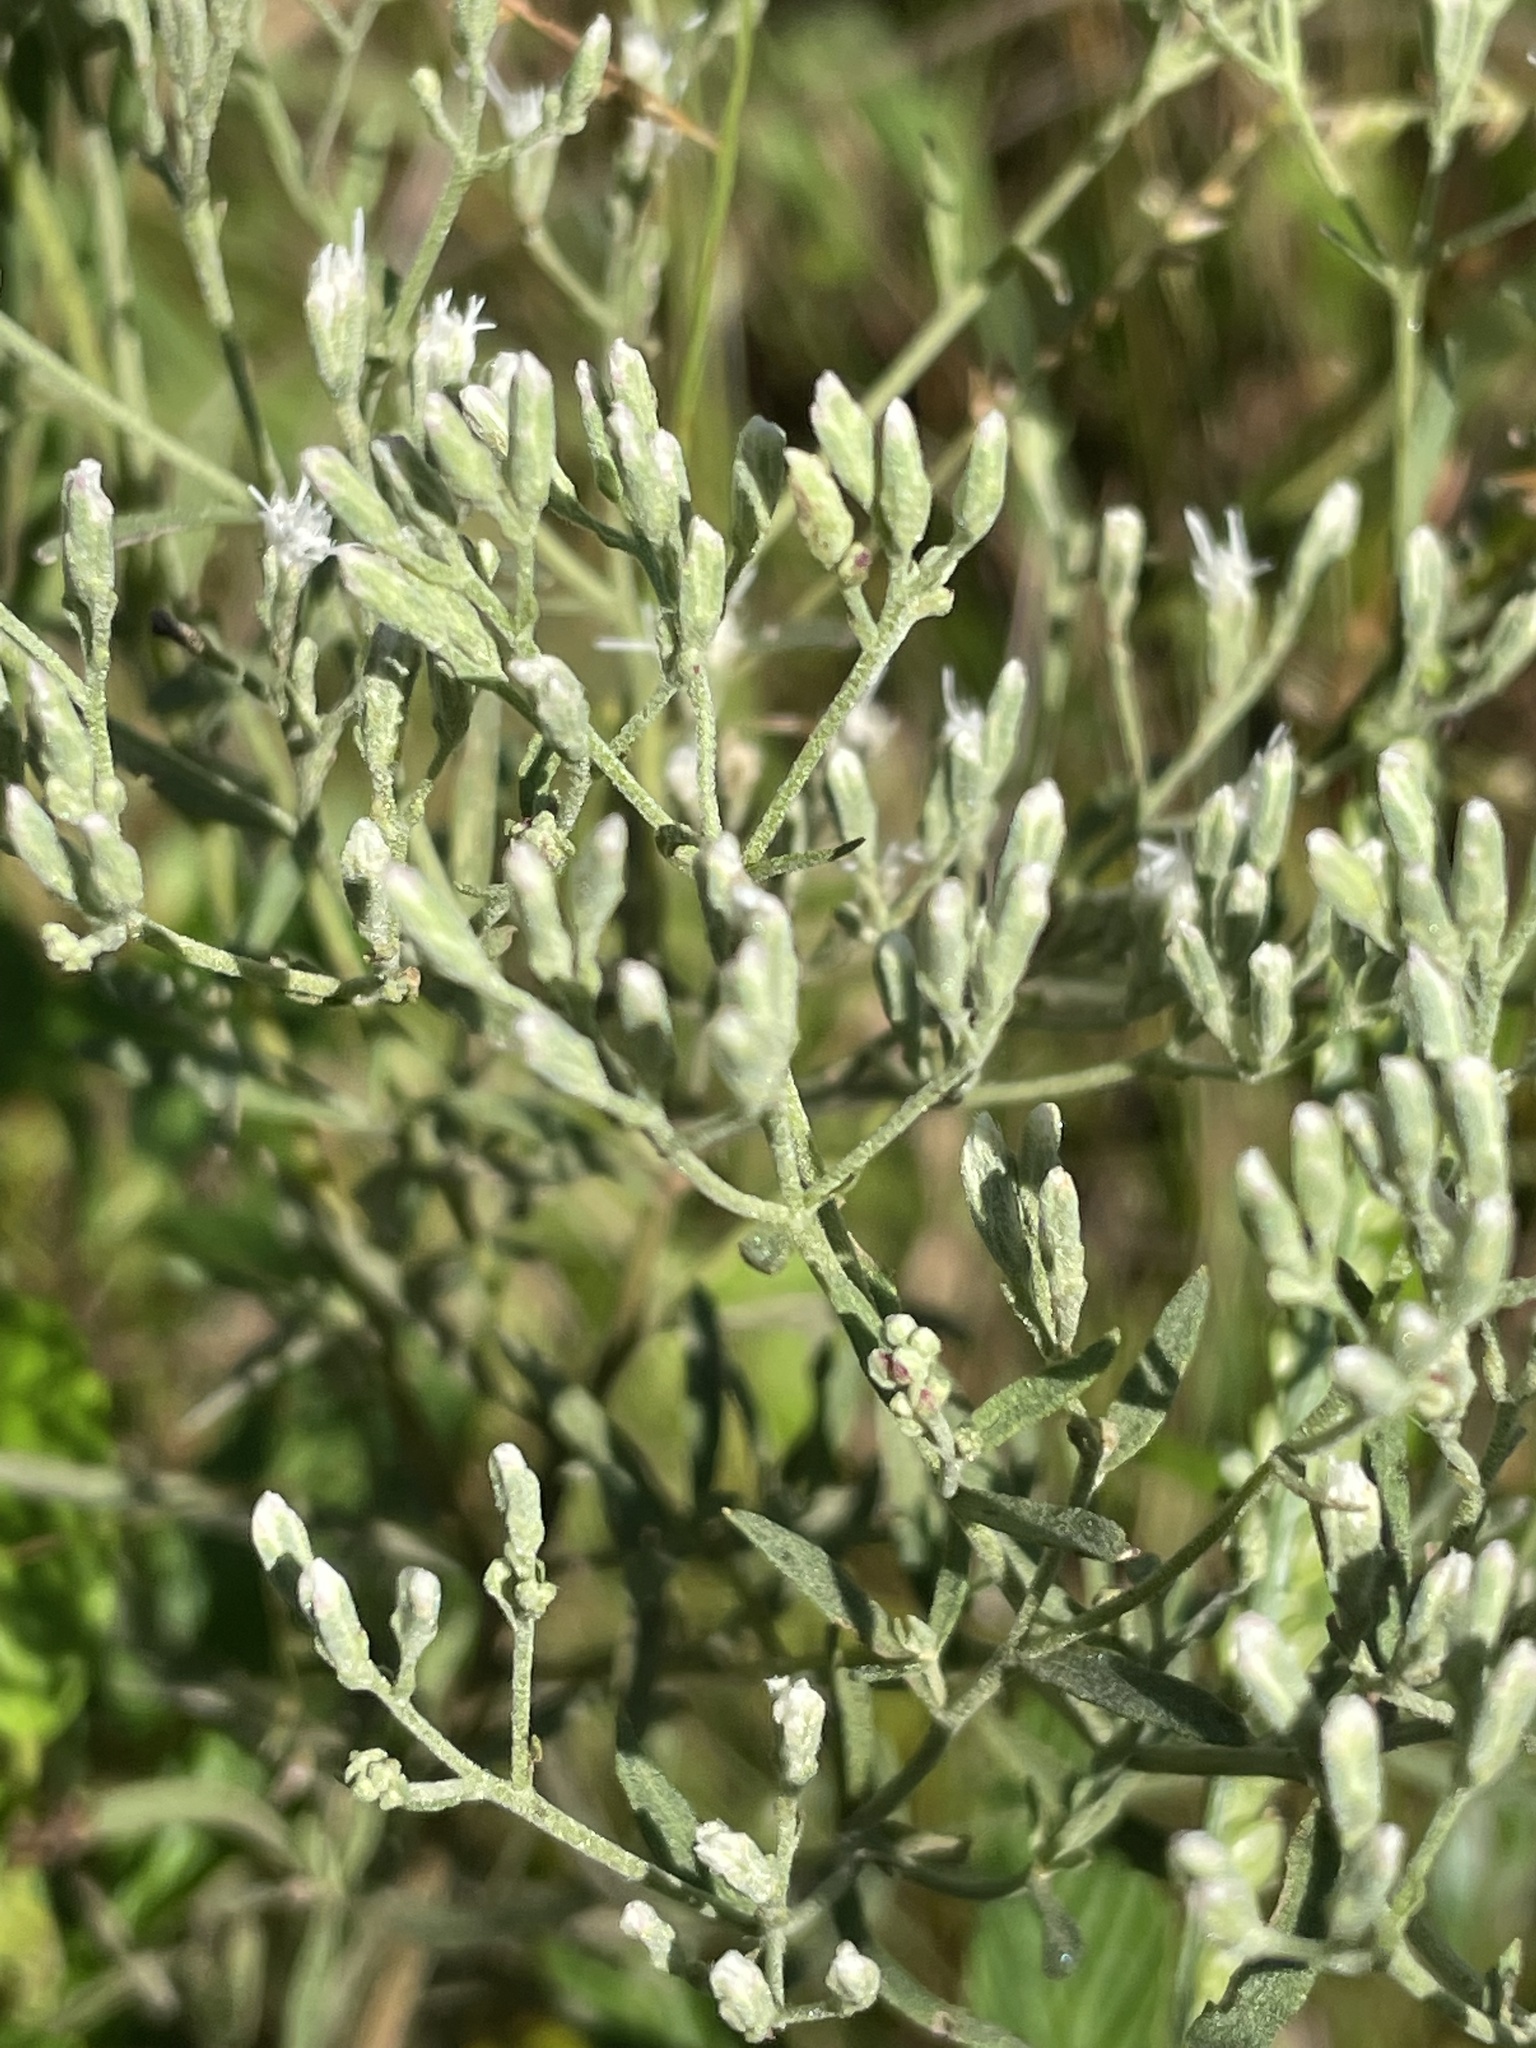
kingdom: Plantae
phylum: Tracheophyta
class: Magnoliopsida
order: Asterales
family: Asteraceae
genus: Eupatorium
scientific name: Eupatorium torreyanum
